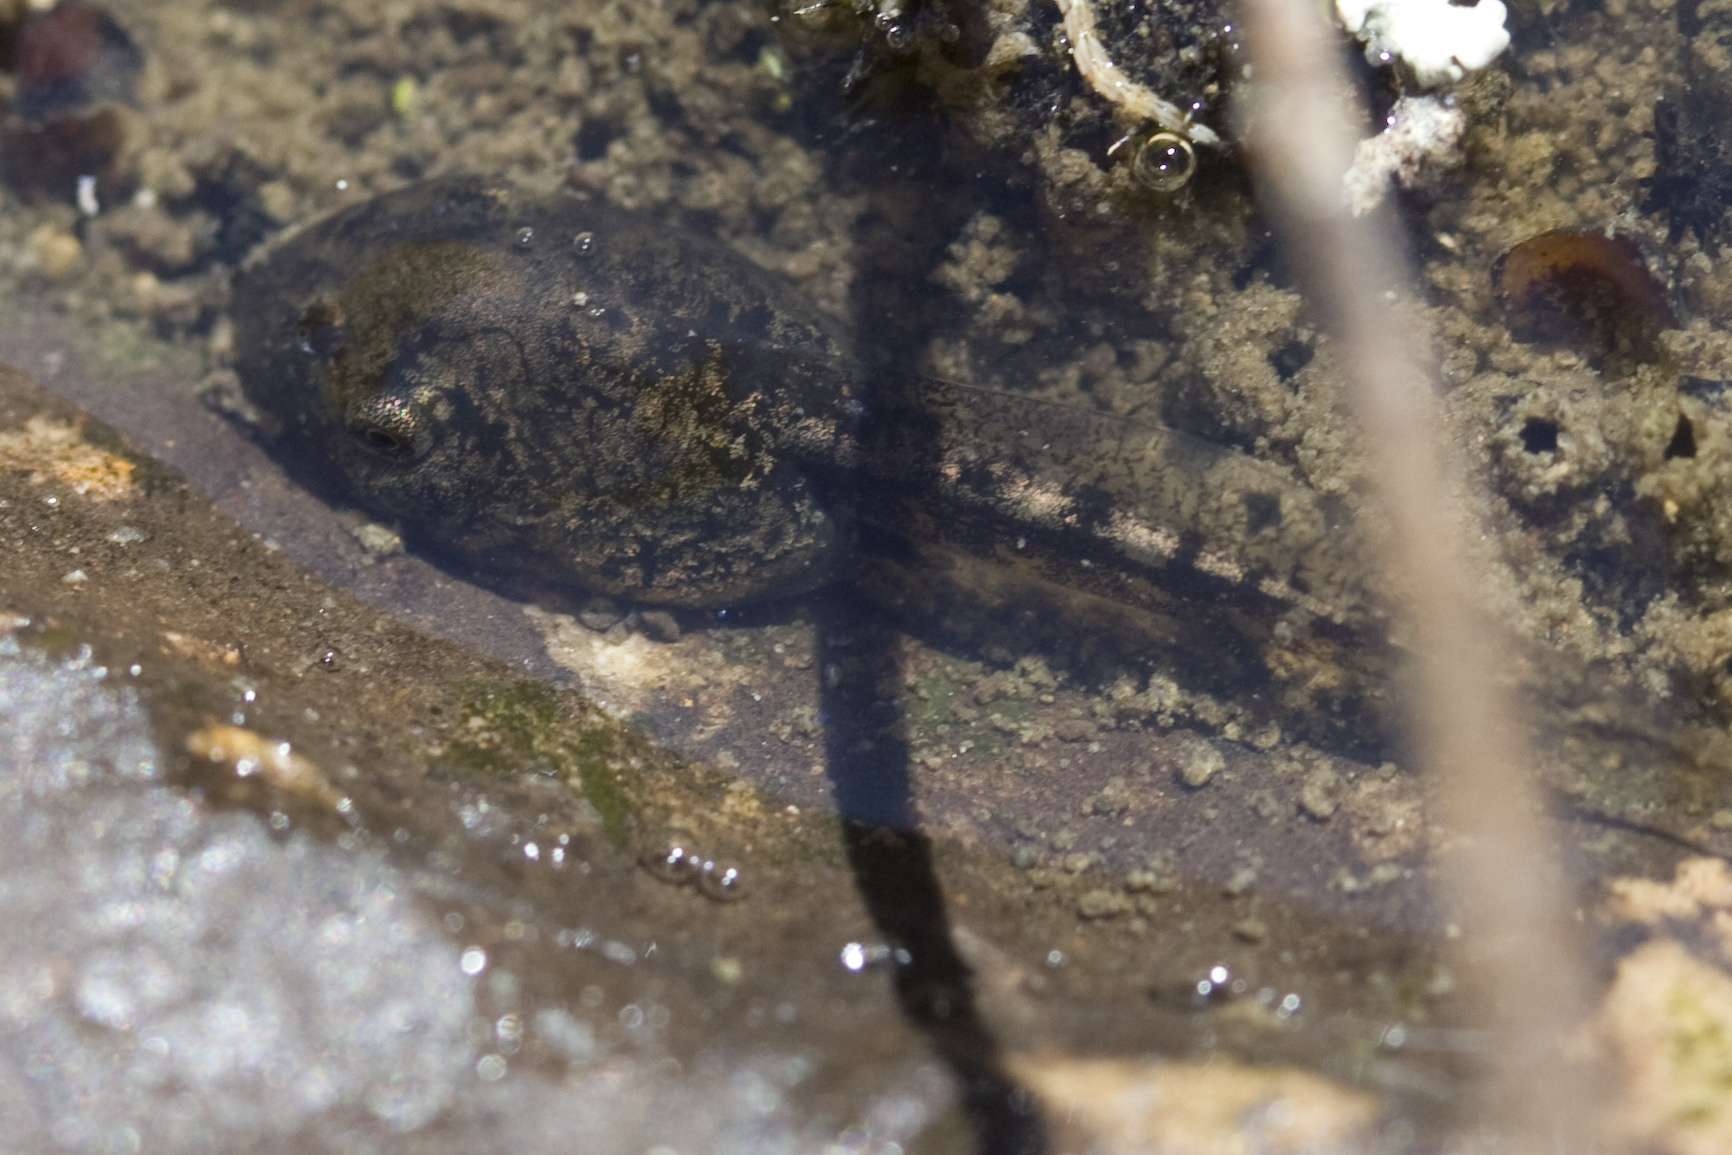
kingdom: Animalia
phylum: Chordata
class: Amphibia
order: Anura
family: Hylidae
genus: Pseudacris
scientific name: Pseudacris regilla
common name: Pacific chorus frog
